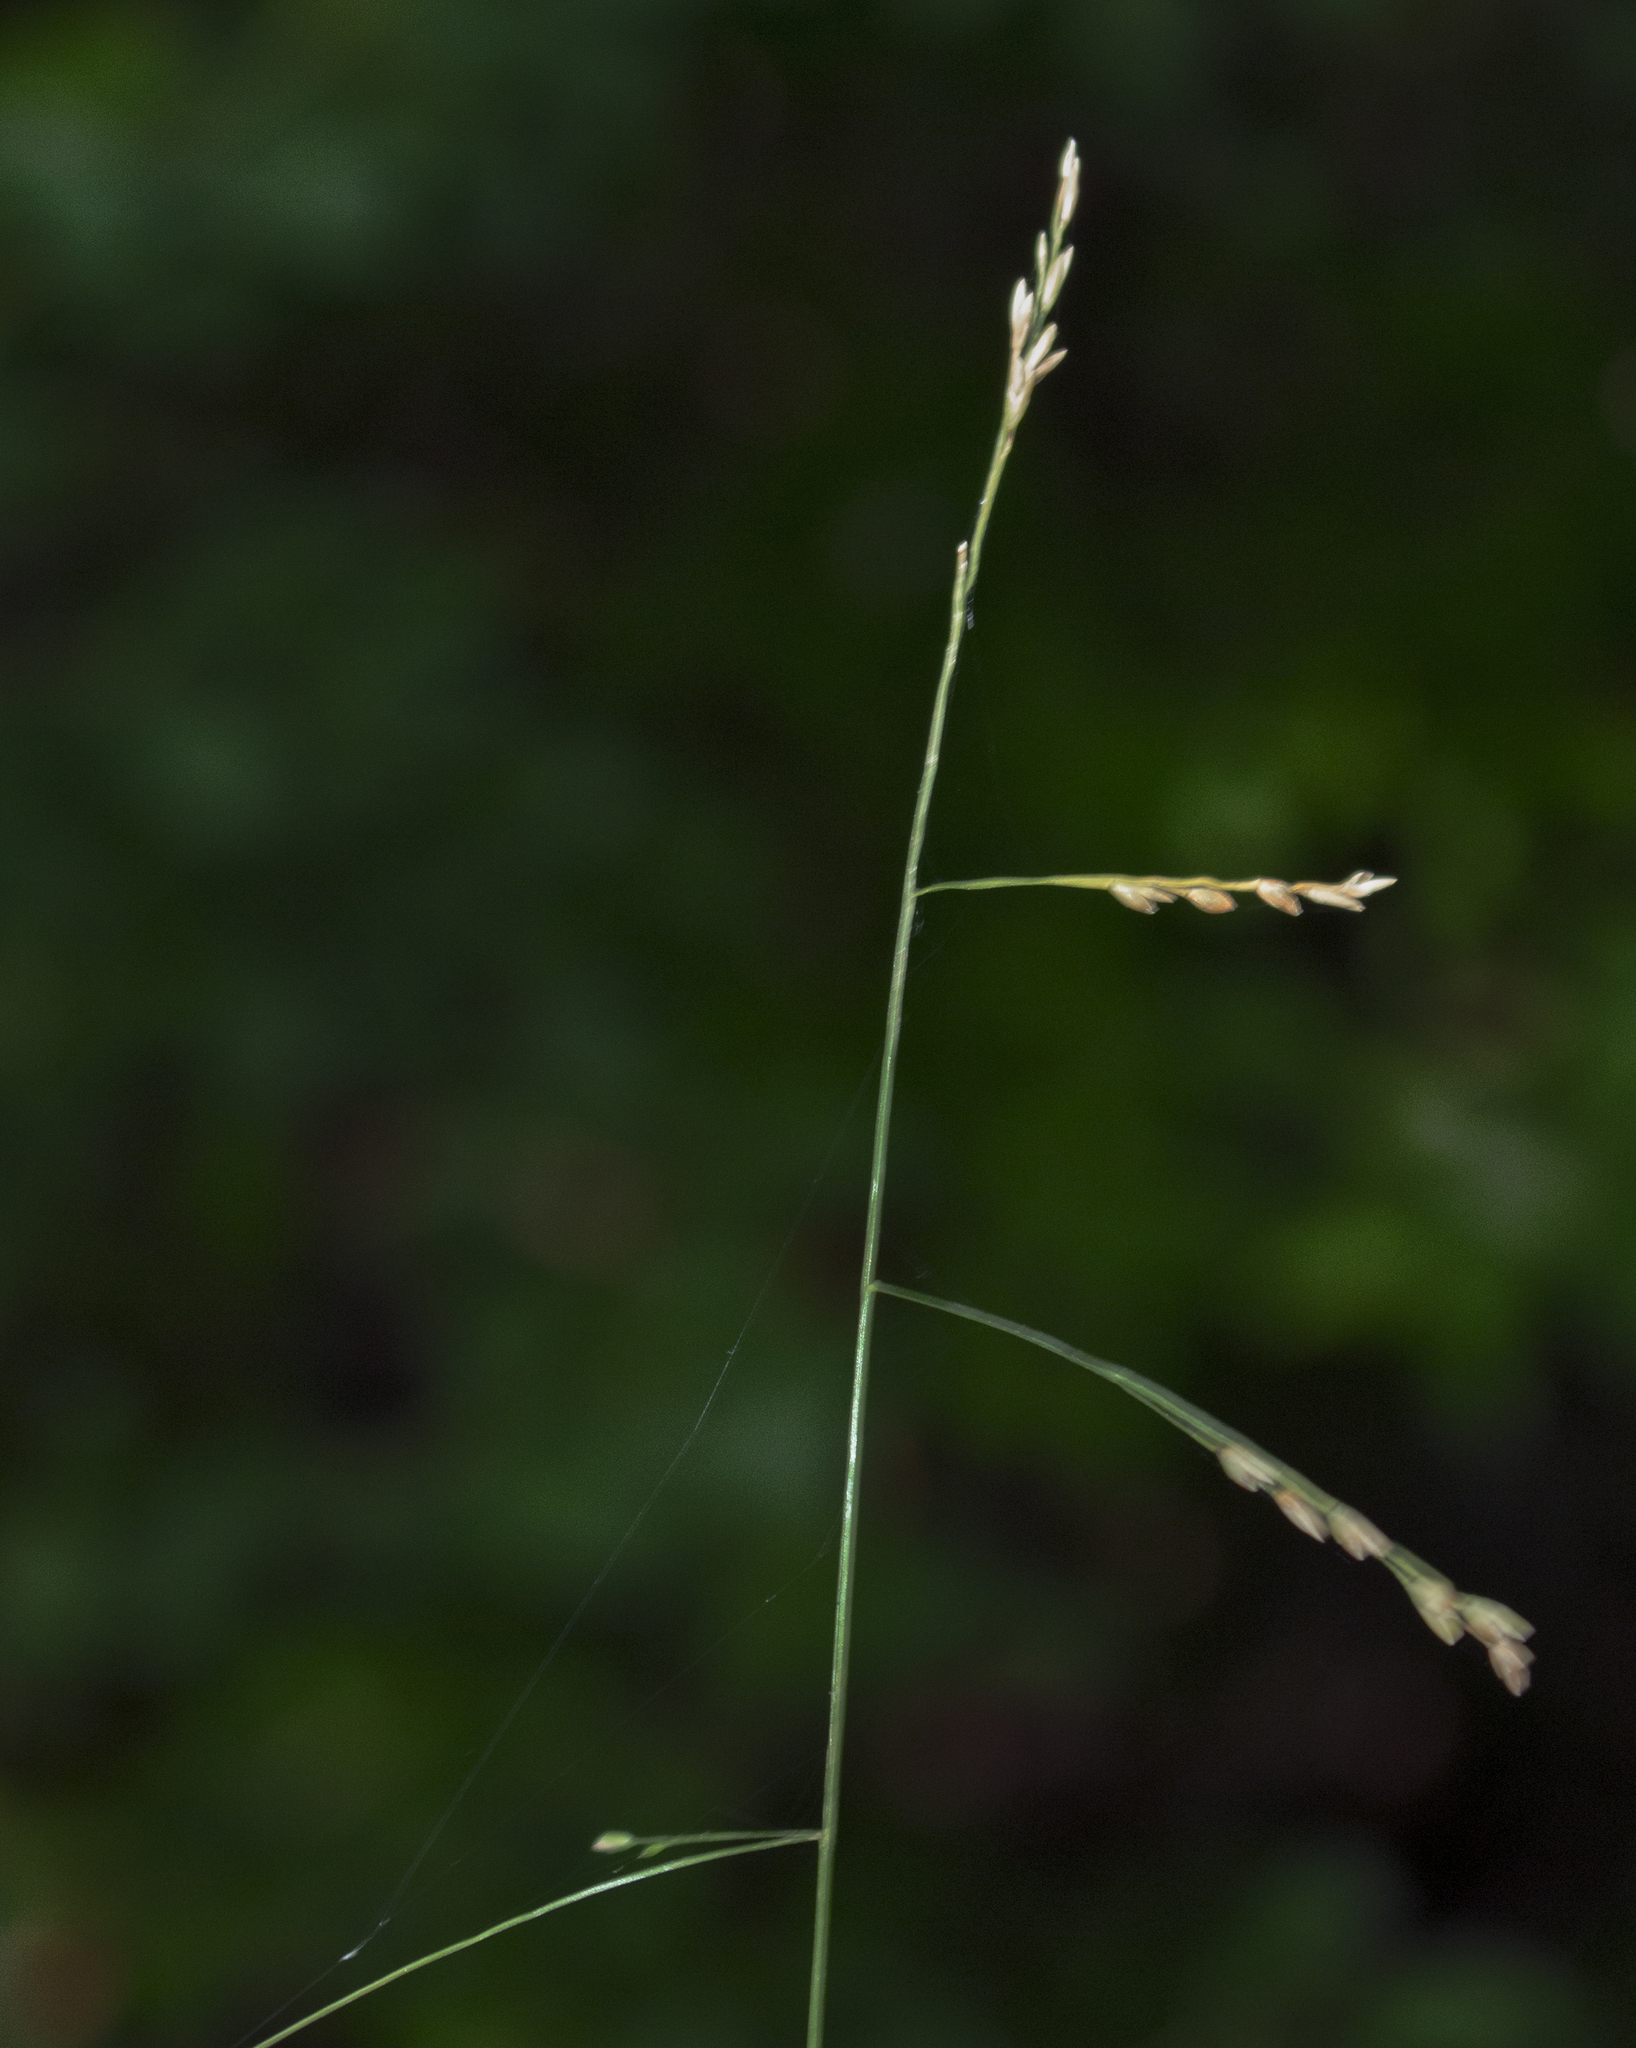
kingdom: Plantae
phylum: Tracheophyta
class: Liliopsida
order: Poales
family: Poaceae
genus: Festuca
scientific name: Festuca subverticillata
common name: Nodding fescue
